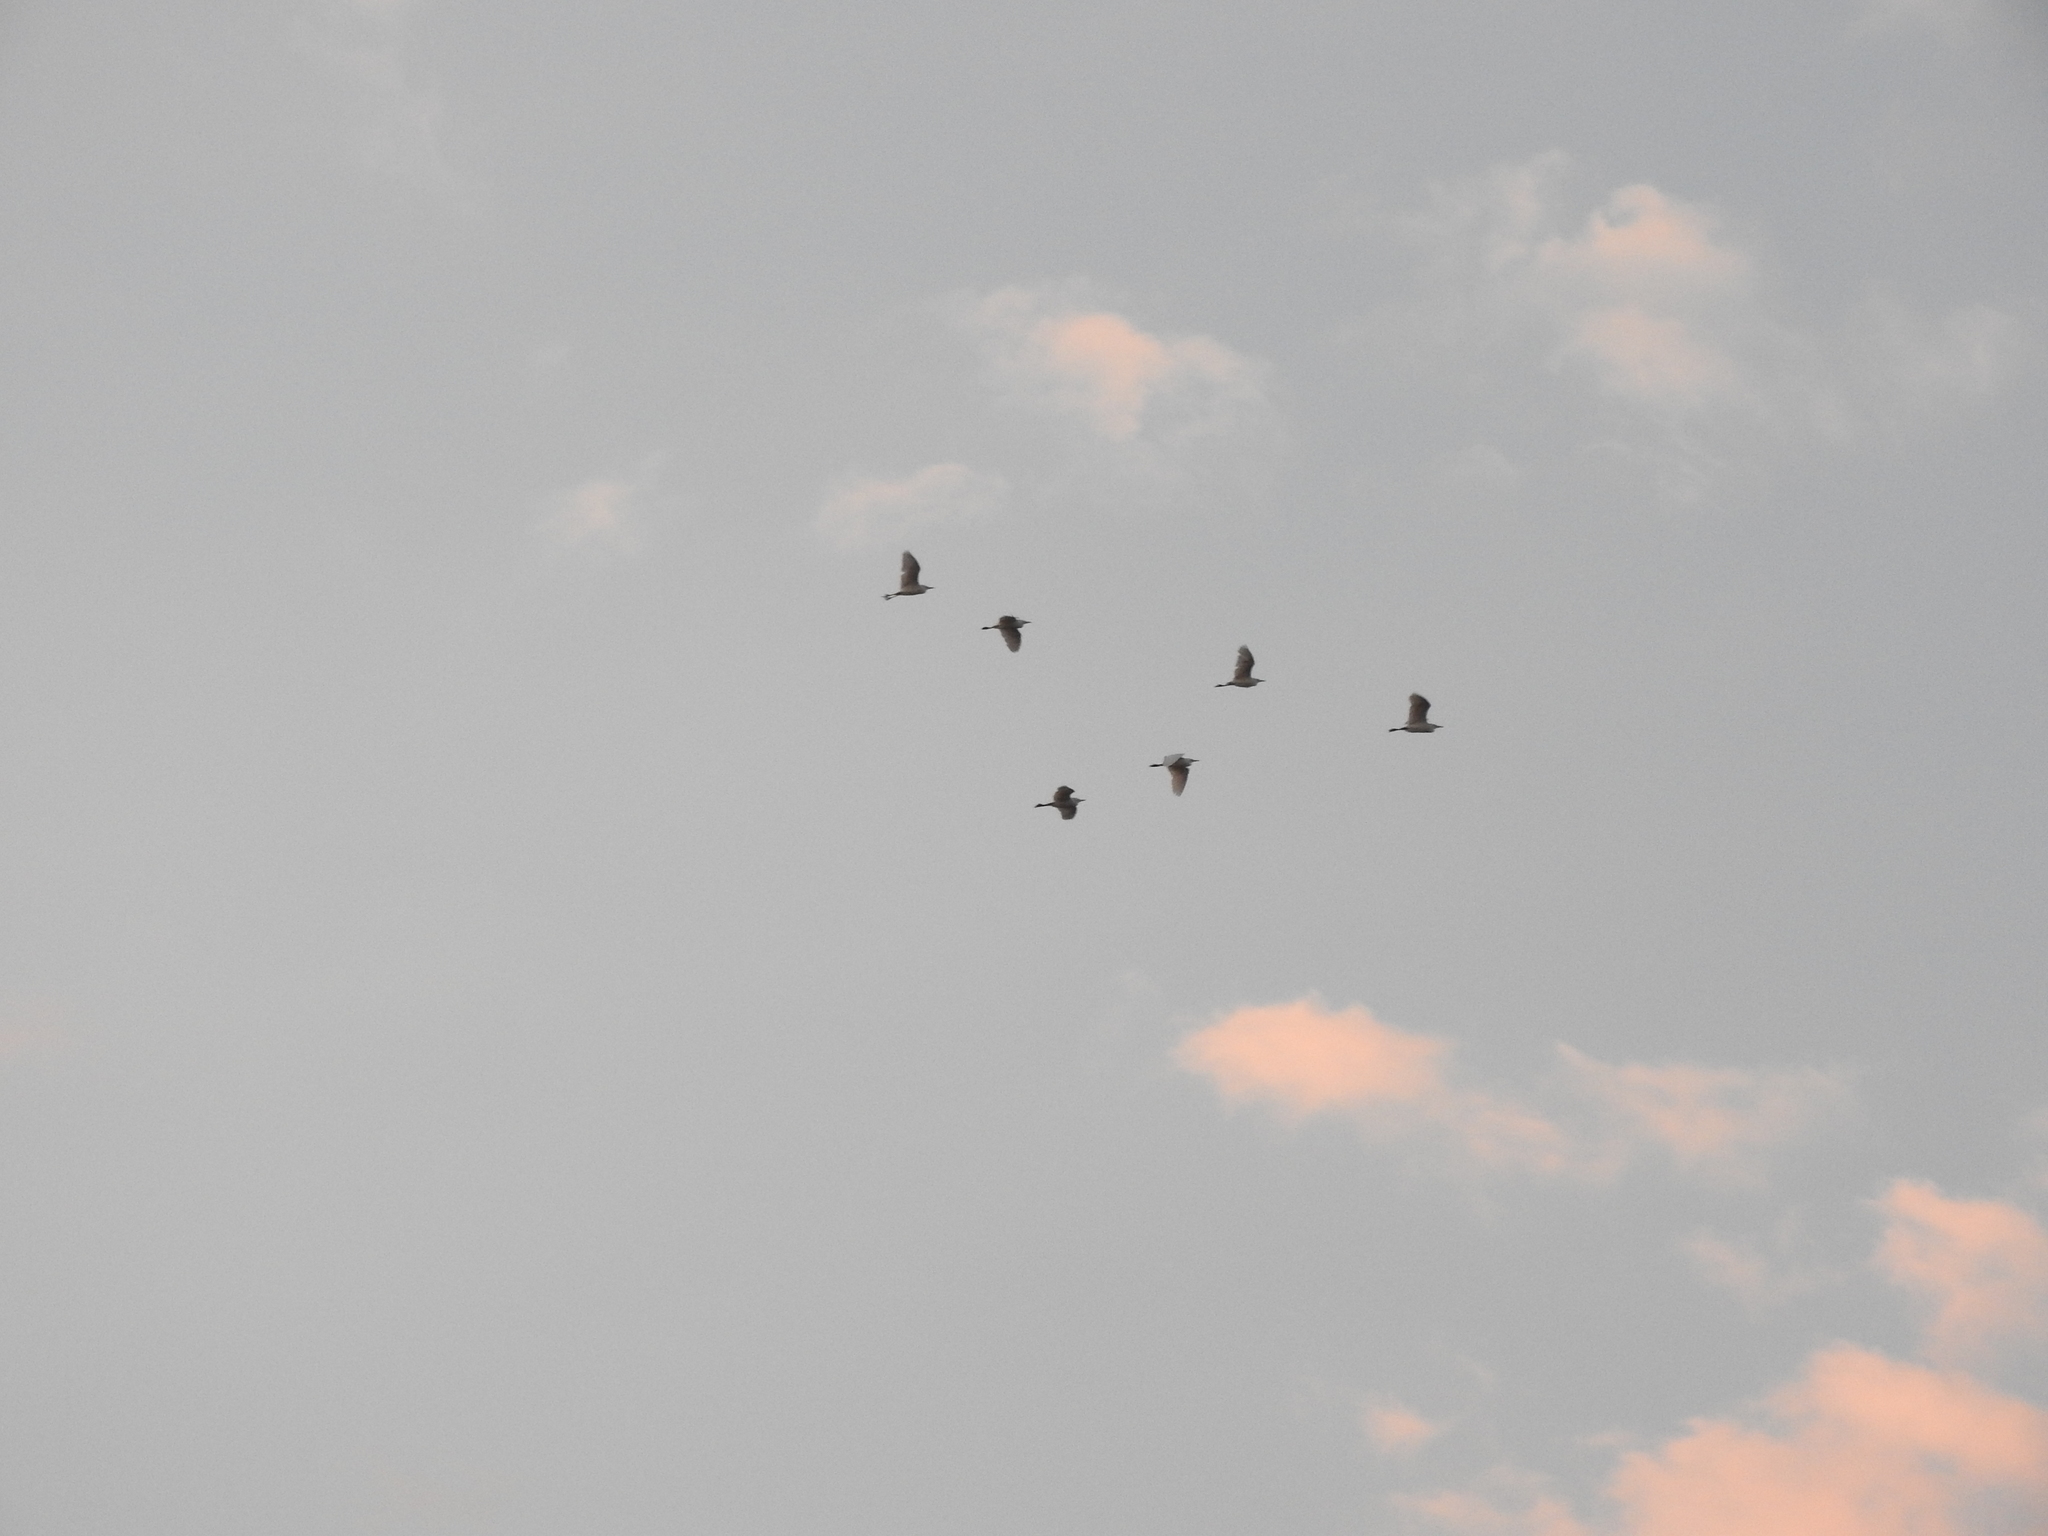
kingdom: Animalia
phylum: Chordata
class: Aves
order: Pelecaniformes
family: Ardeidae
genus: Bubulcus
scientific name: Bubulcus ibis
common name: Cattle egret
